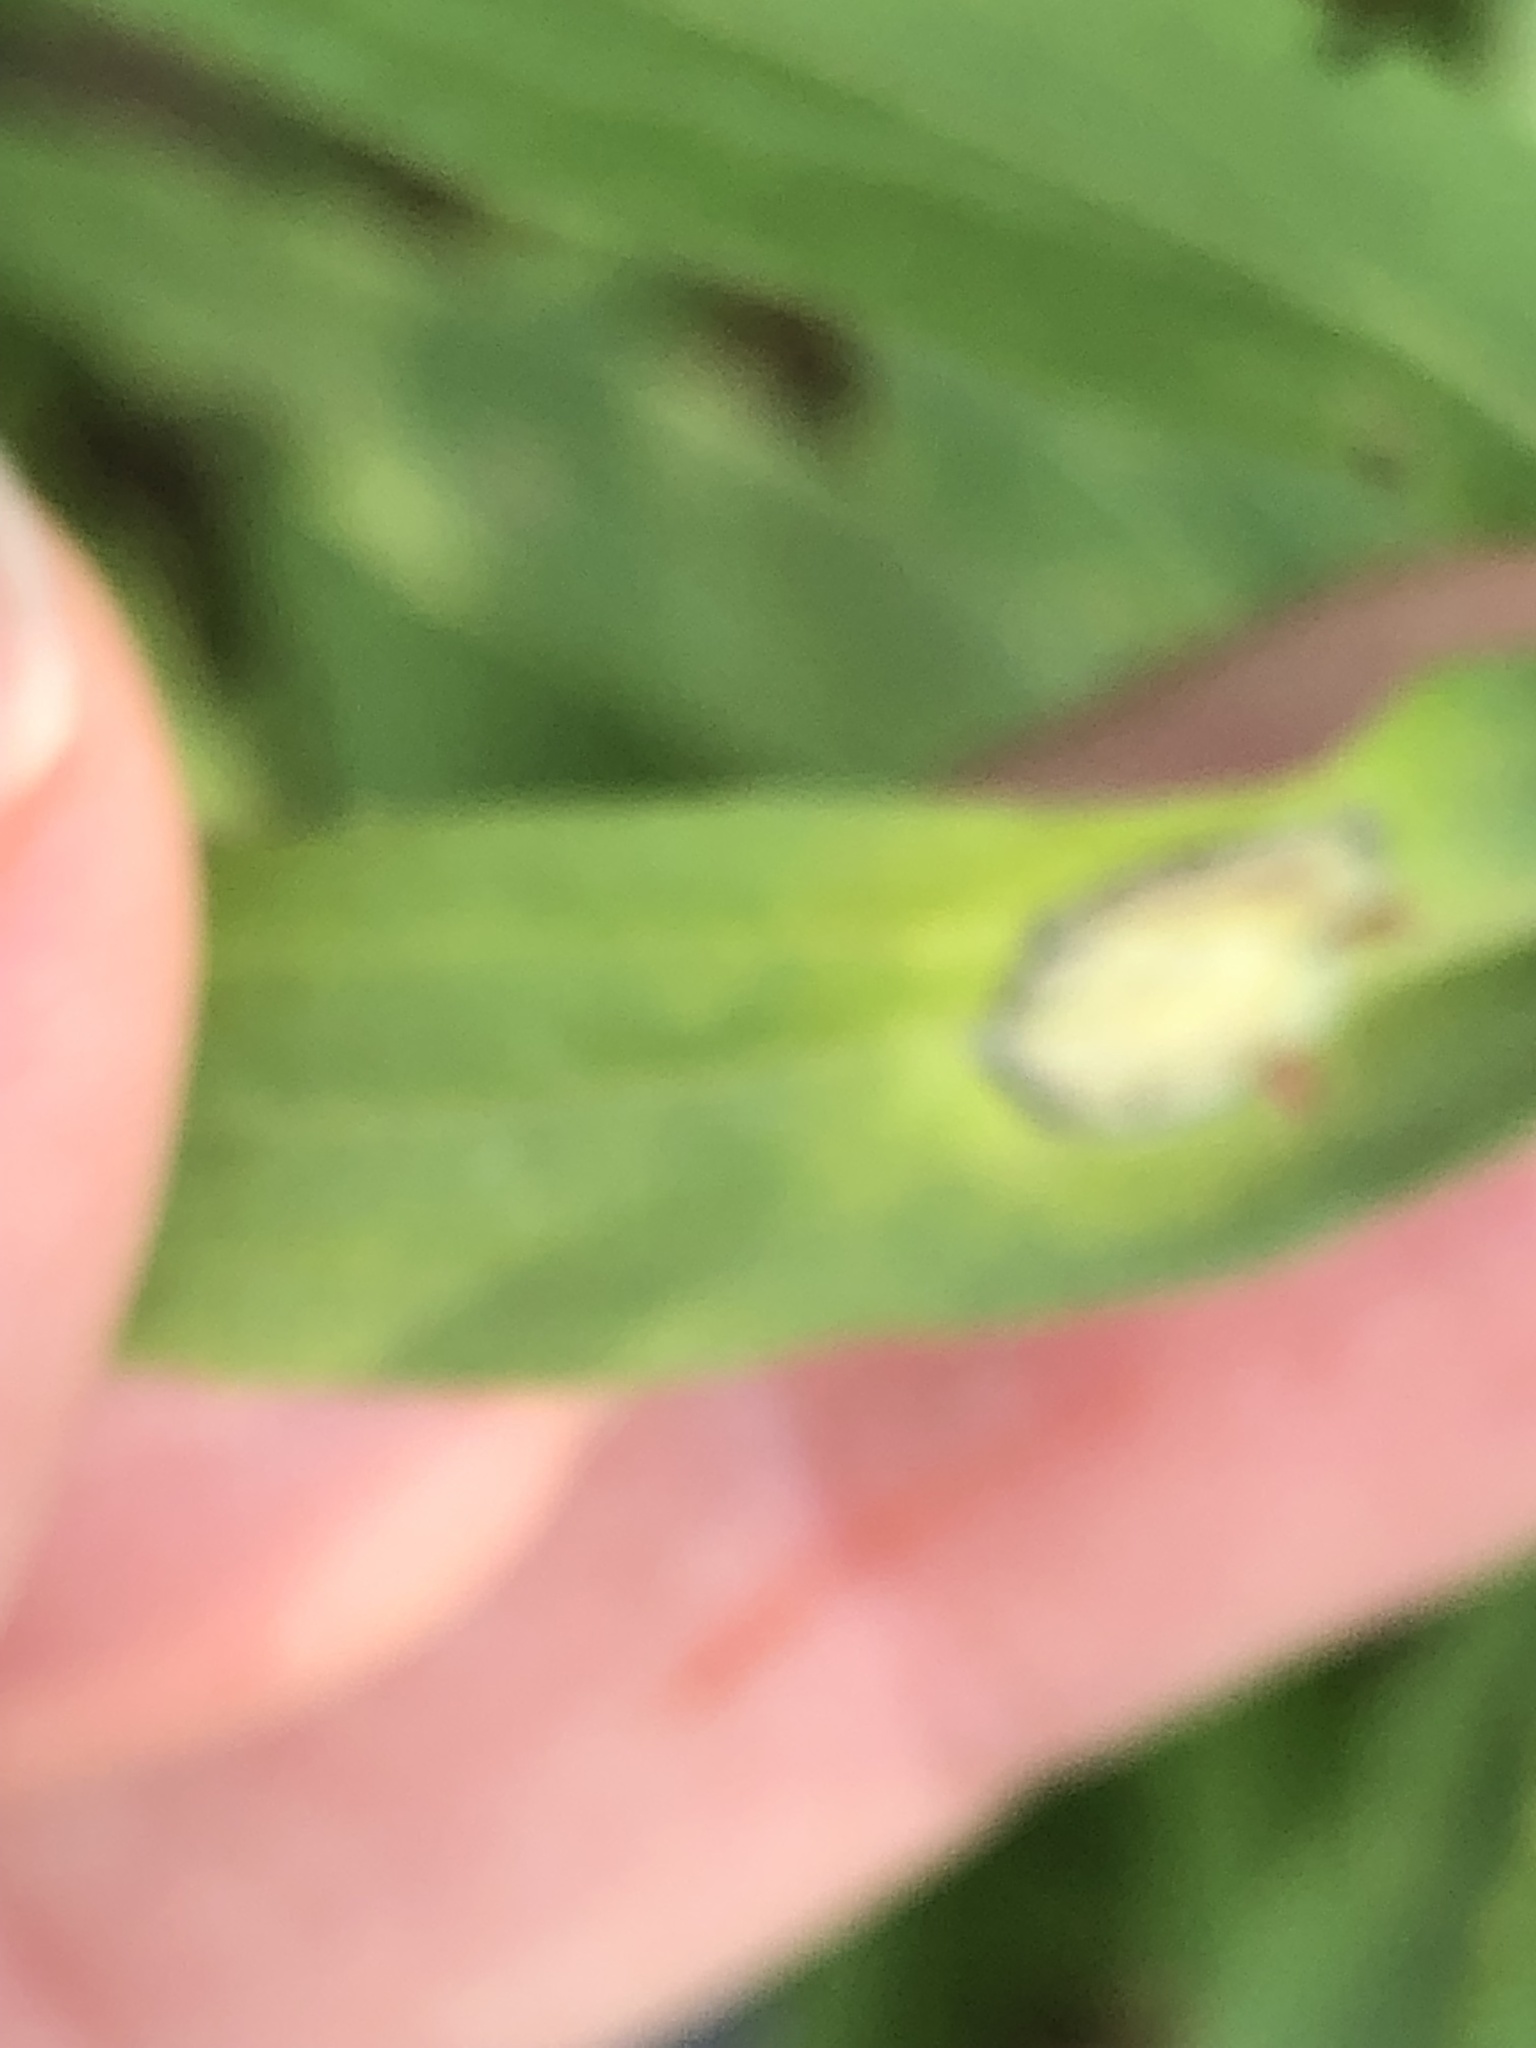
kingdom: Animalia
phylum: Arthropoda
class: Insecta
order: Diptera
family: Cecidomyiidae
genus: Asteromyia
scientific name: Asteromyia carbonifera
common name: Carbonifera goldenrod gall midge
